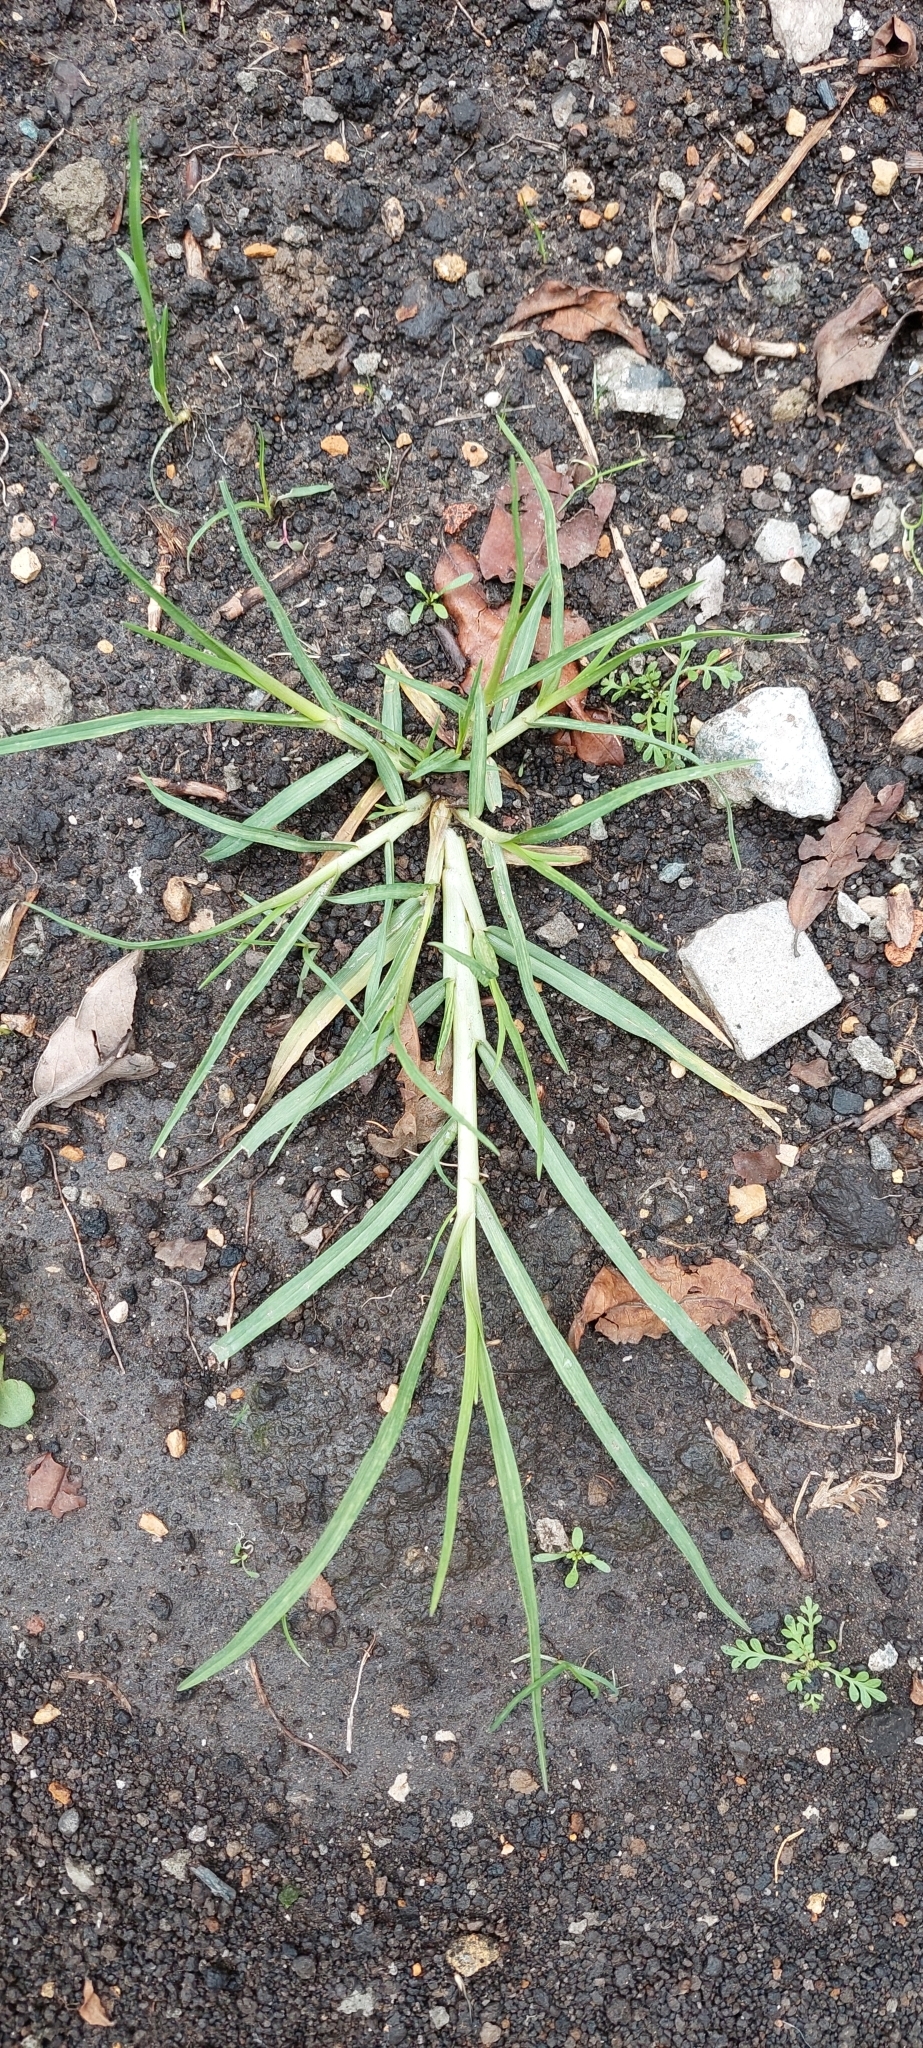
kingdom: Plantae
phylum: Tracheophyta
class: Liliopsida
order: Poales
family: Poaceae
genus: Cenchrus
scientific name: Cenchrus clandestinus
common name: Kikuyugrass
